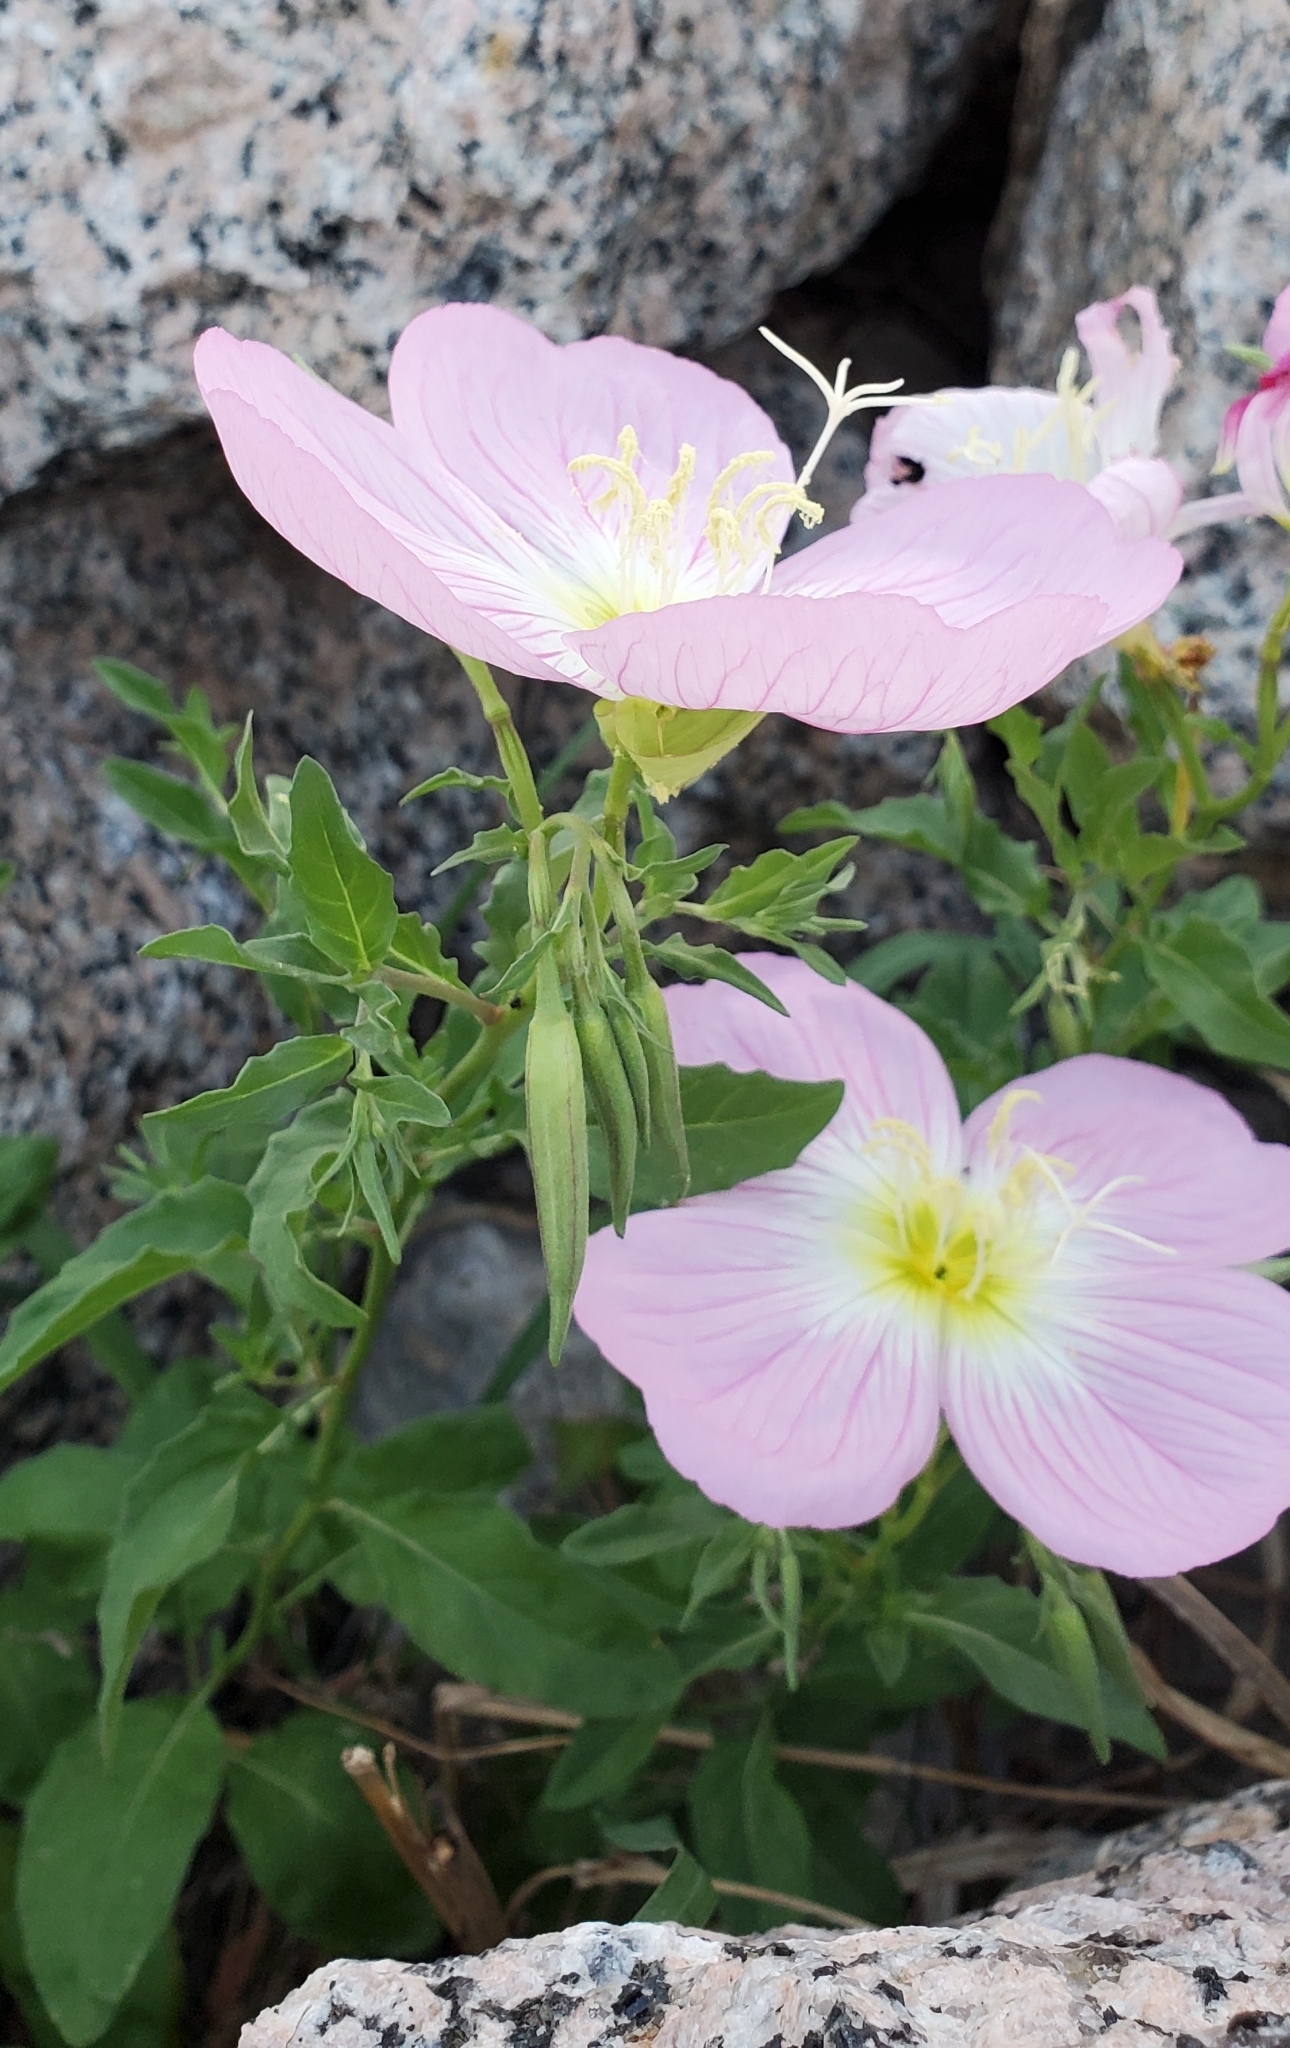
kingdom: Plantae
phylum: Tracheophyta
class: Magnoliopsida
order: Myrtales
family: Onagraceae
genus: Oenothera
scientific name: Oenothera speciosa
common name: White evening-primrose
